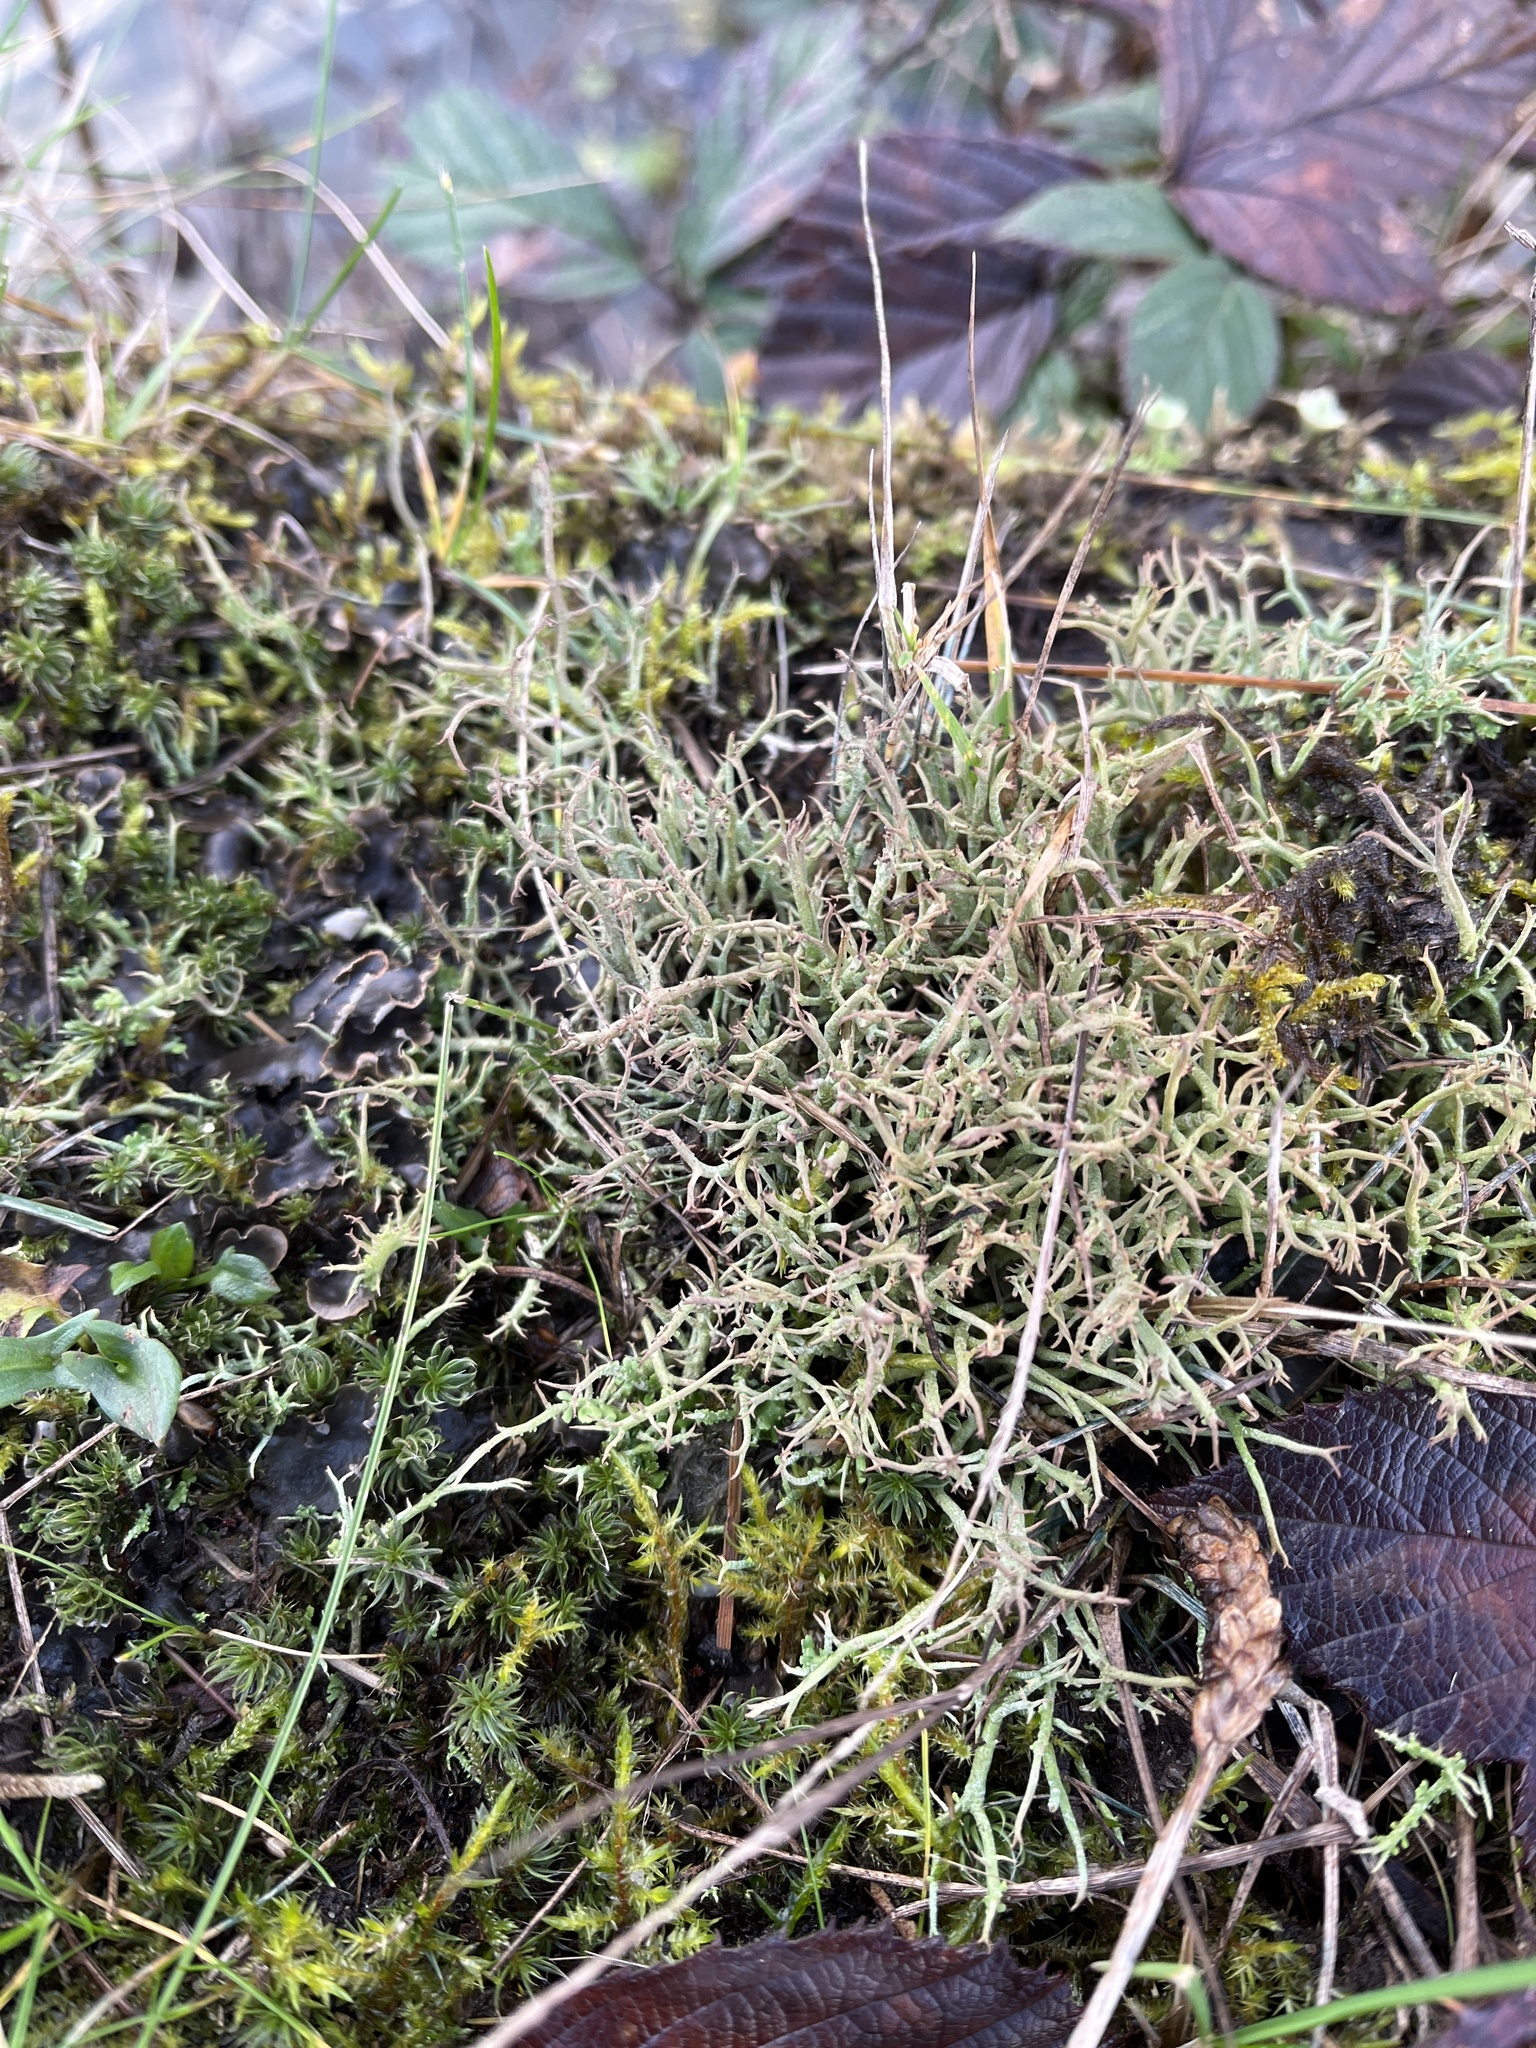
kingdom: Fungi
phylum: Ascomycota
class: Lecanoromycetes
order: Lecanorales
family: Cladoniaceae
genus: Cladonia
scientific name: Cladonia furcata
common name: Many-forked cladonia
